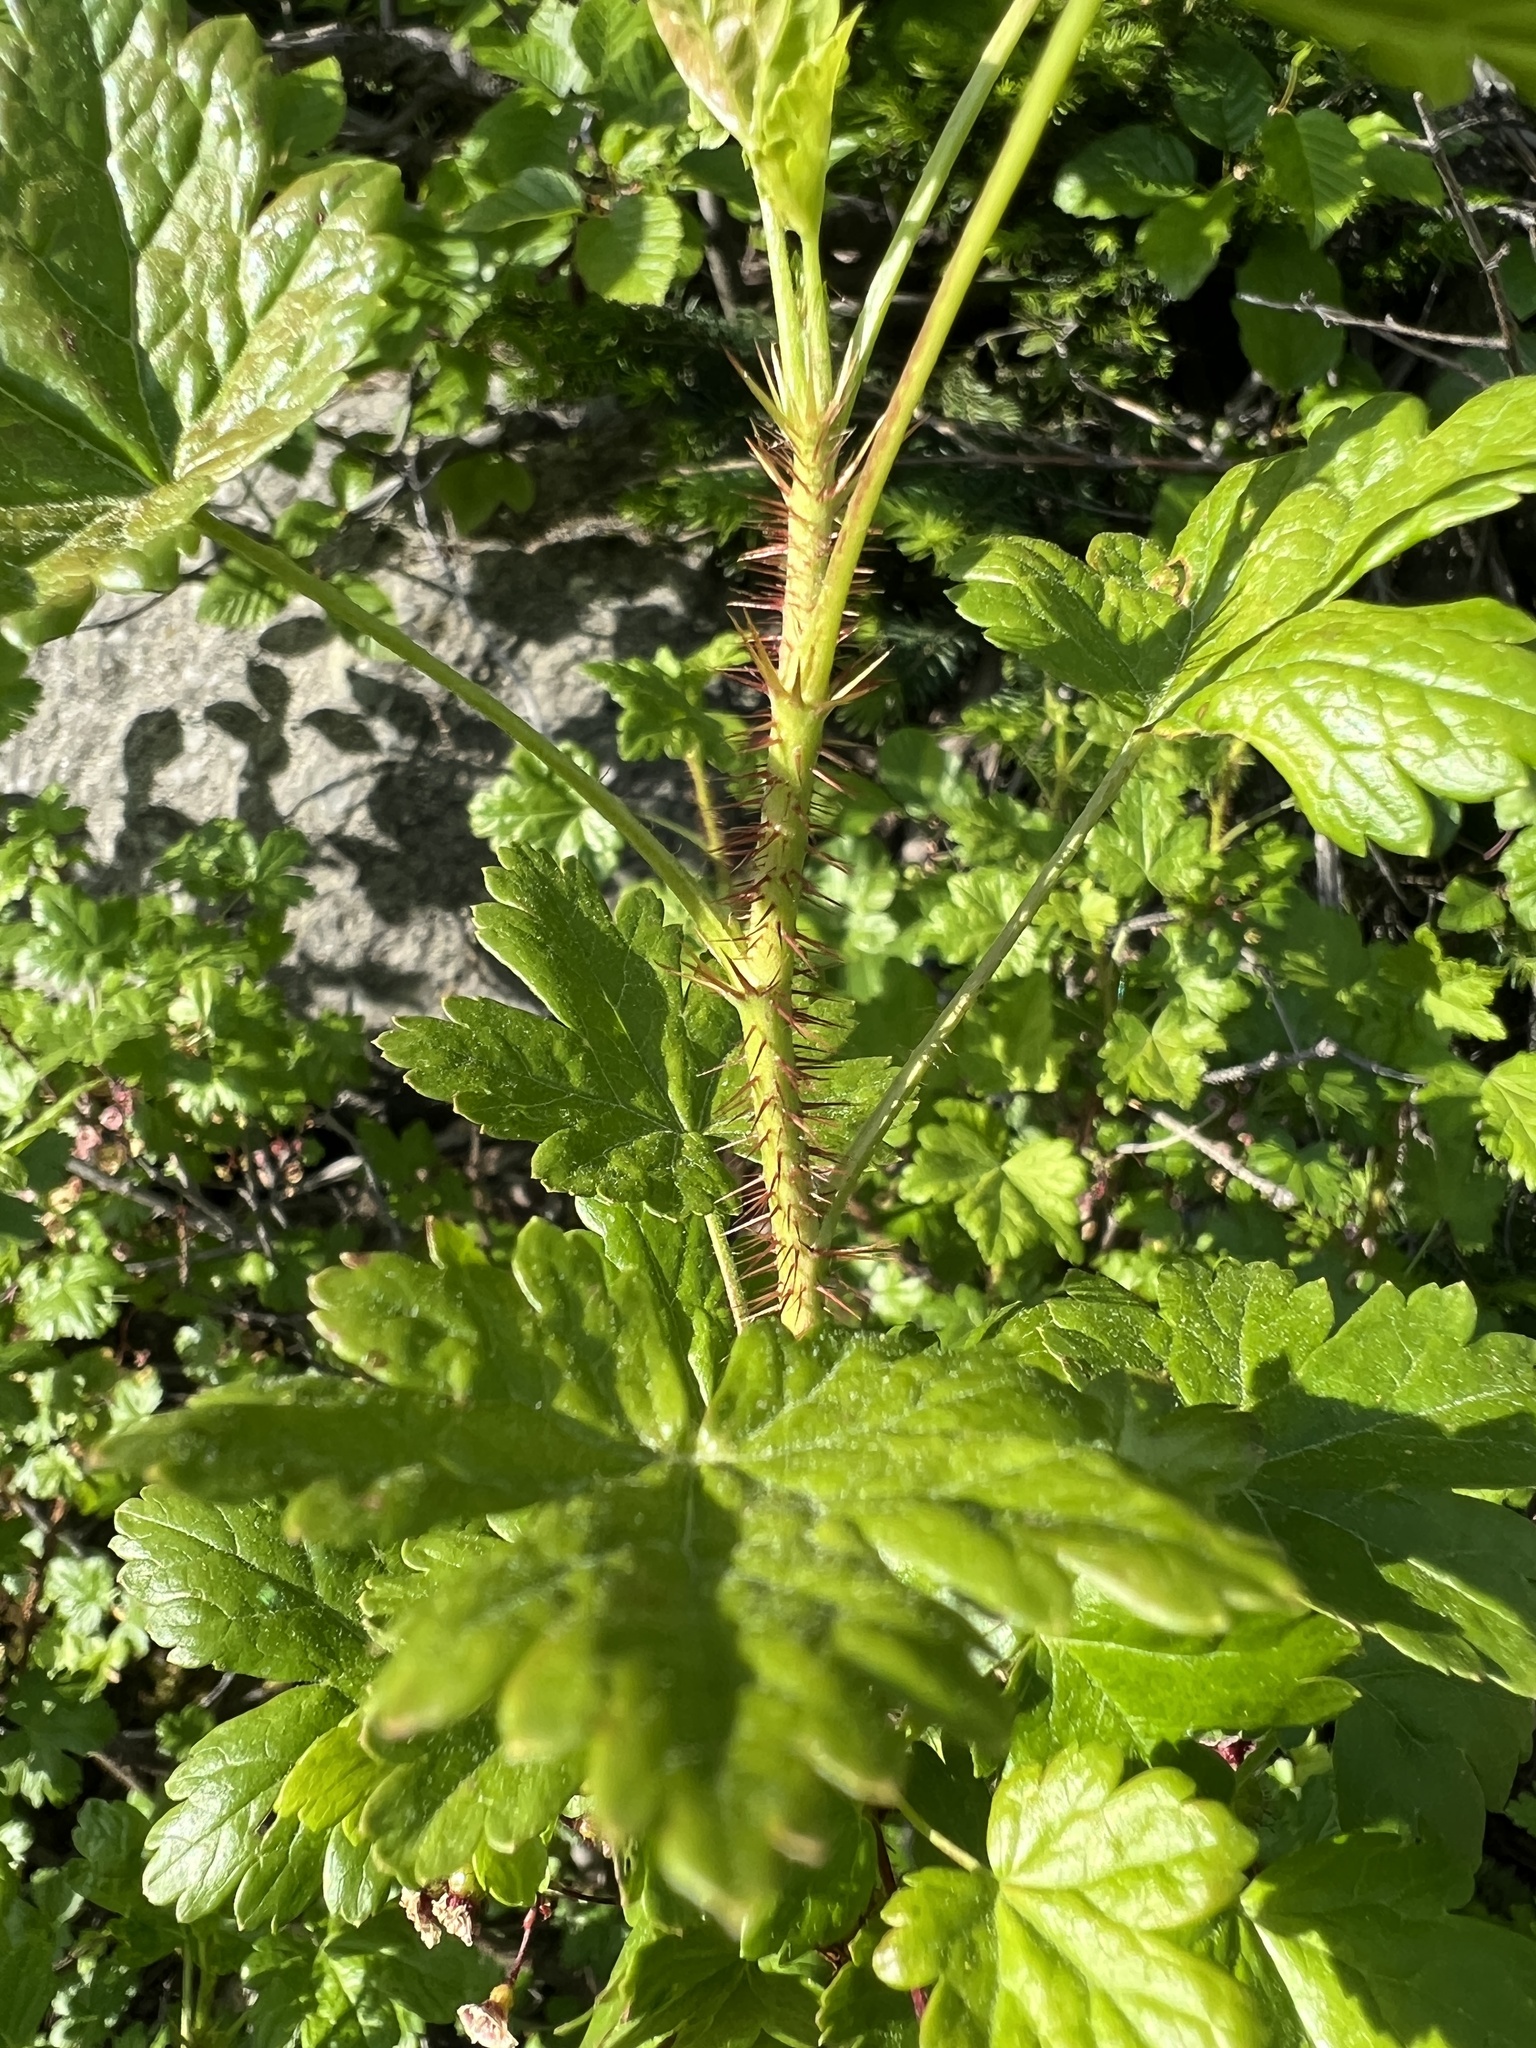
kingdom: Plantae
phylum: Tracheophyta
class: Magnoliopsida
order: Saxifragales
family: Grossulariaceae
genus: Ribes
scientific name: Ribes lacustre
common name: Black gooseberry
